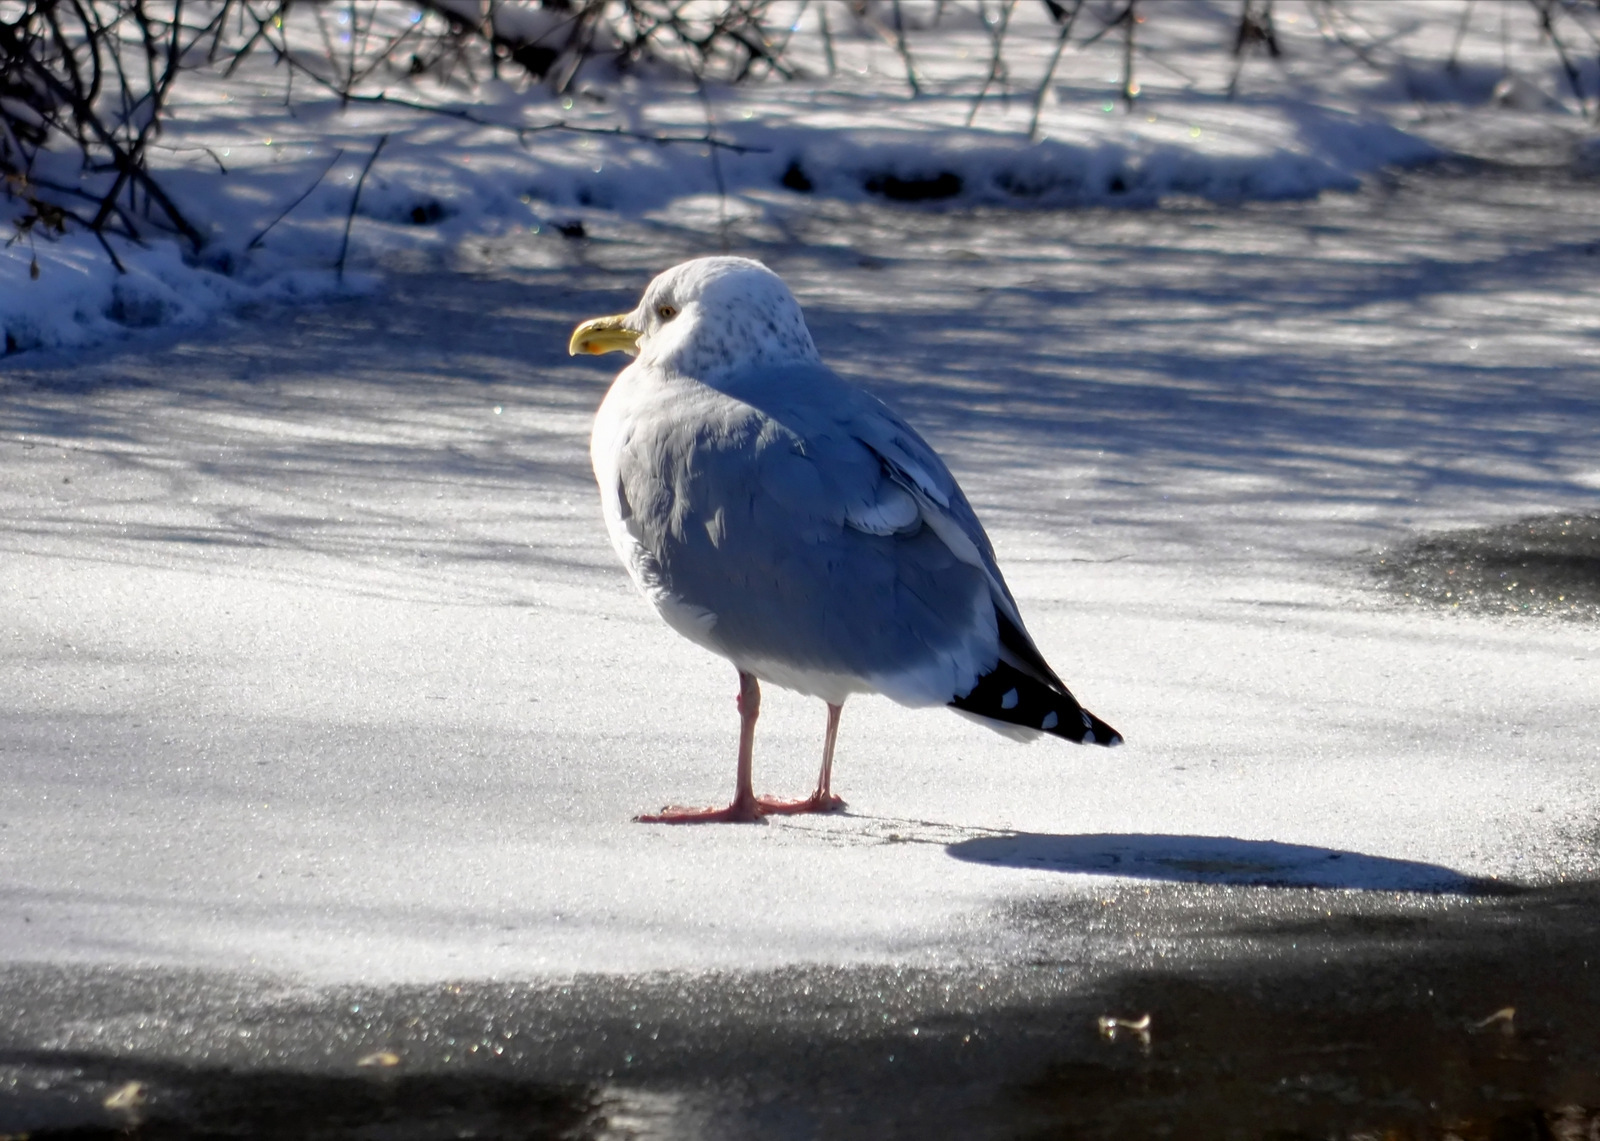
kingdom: Animalia
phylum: Chordata
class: Aves
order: Charadriiformes
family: Laridae
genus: Larus
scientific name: Larus argentatus
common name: Herring gull
